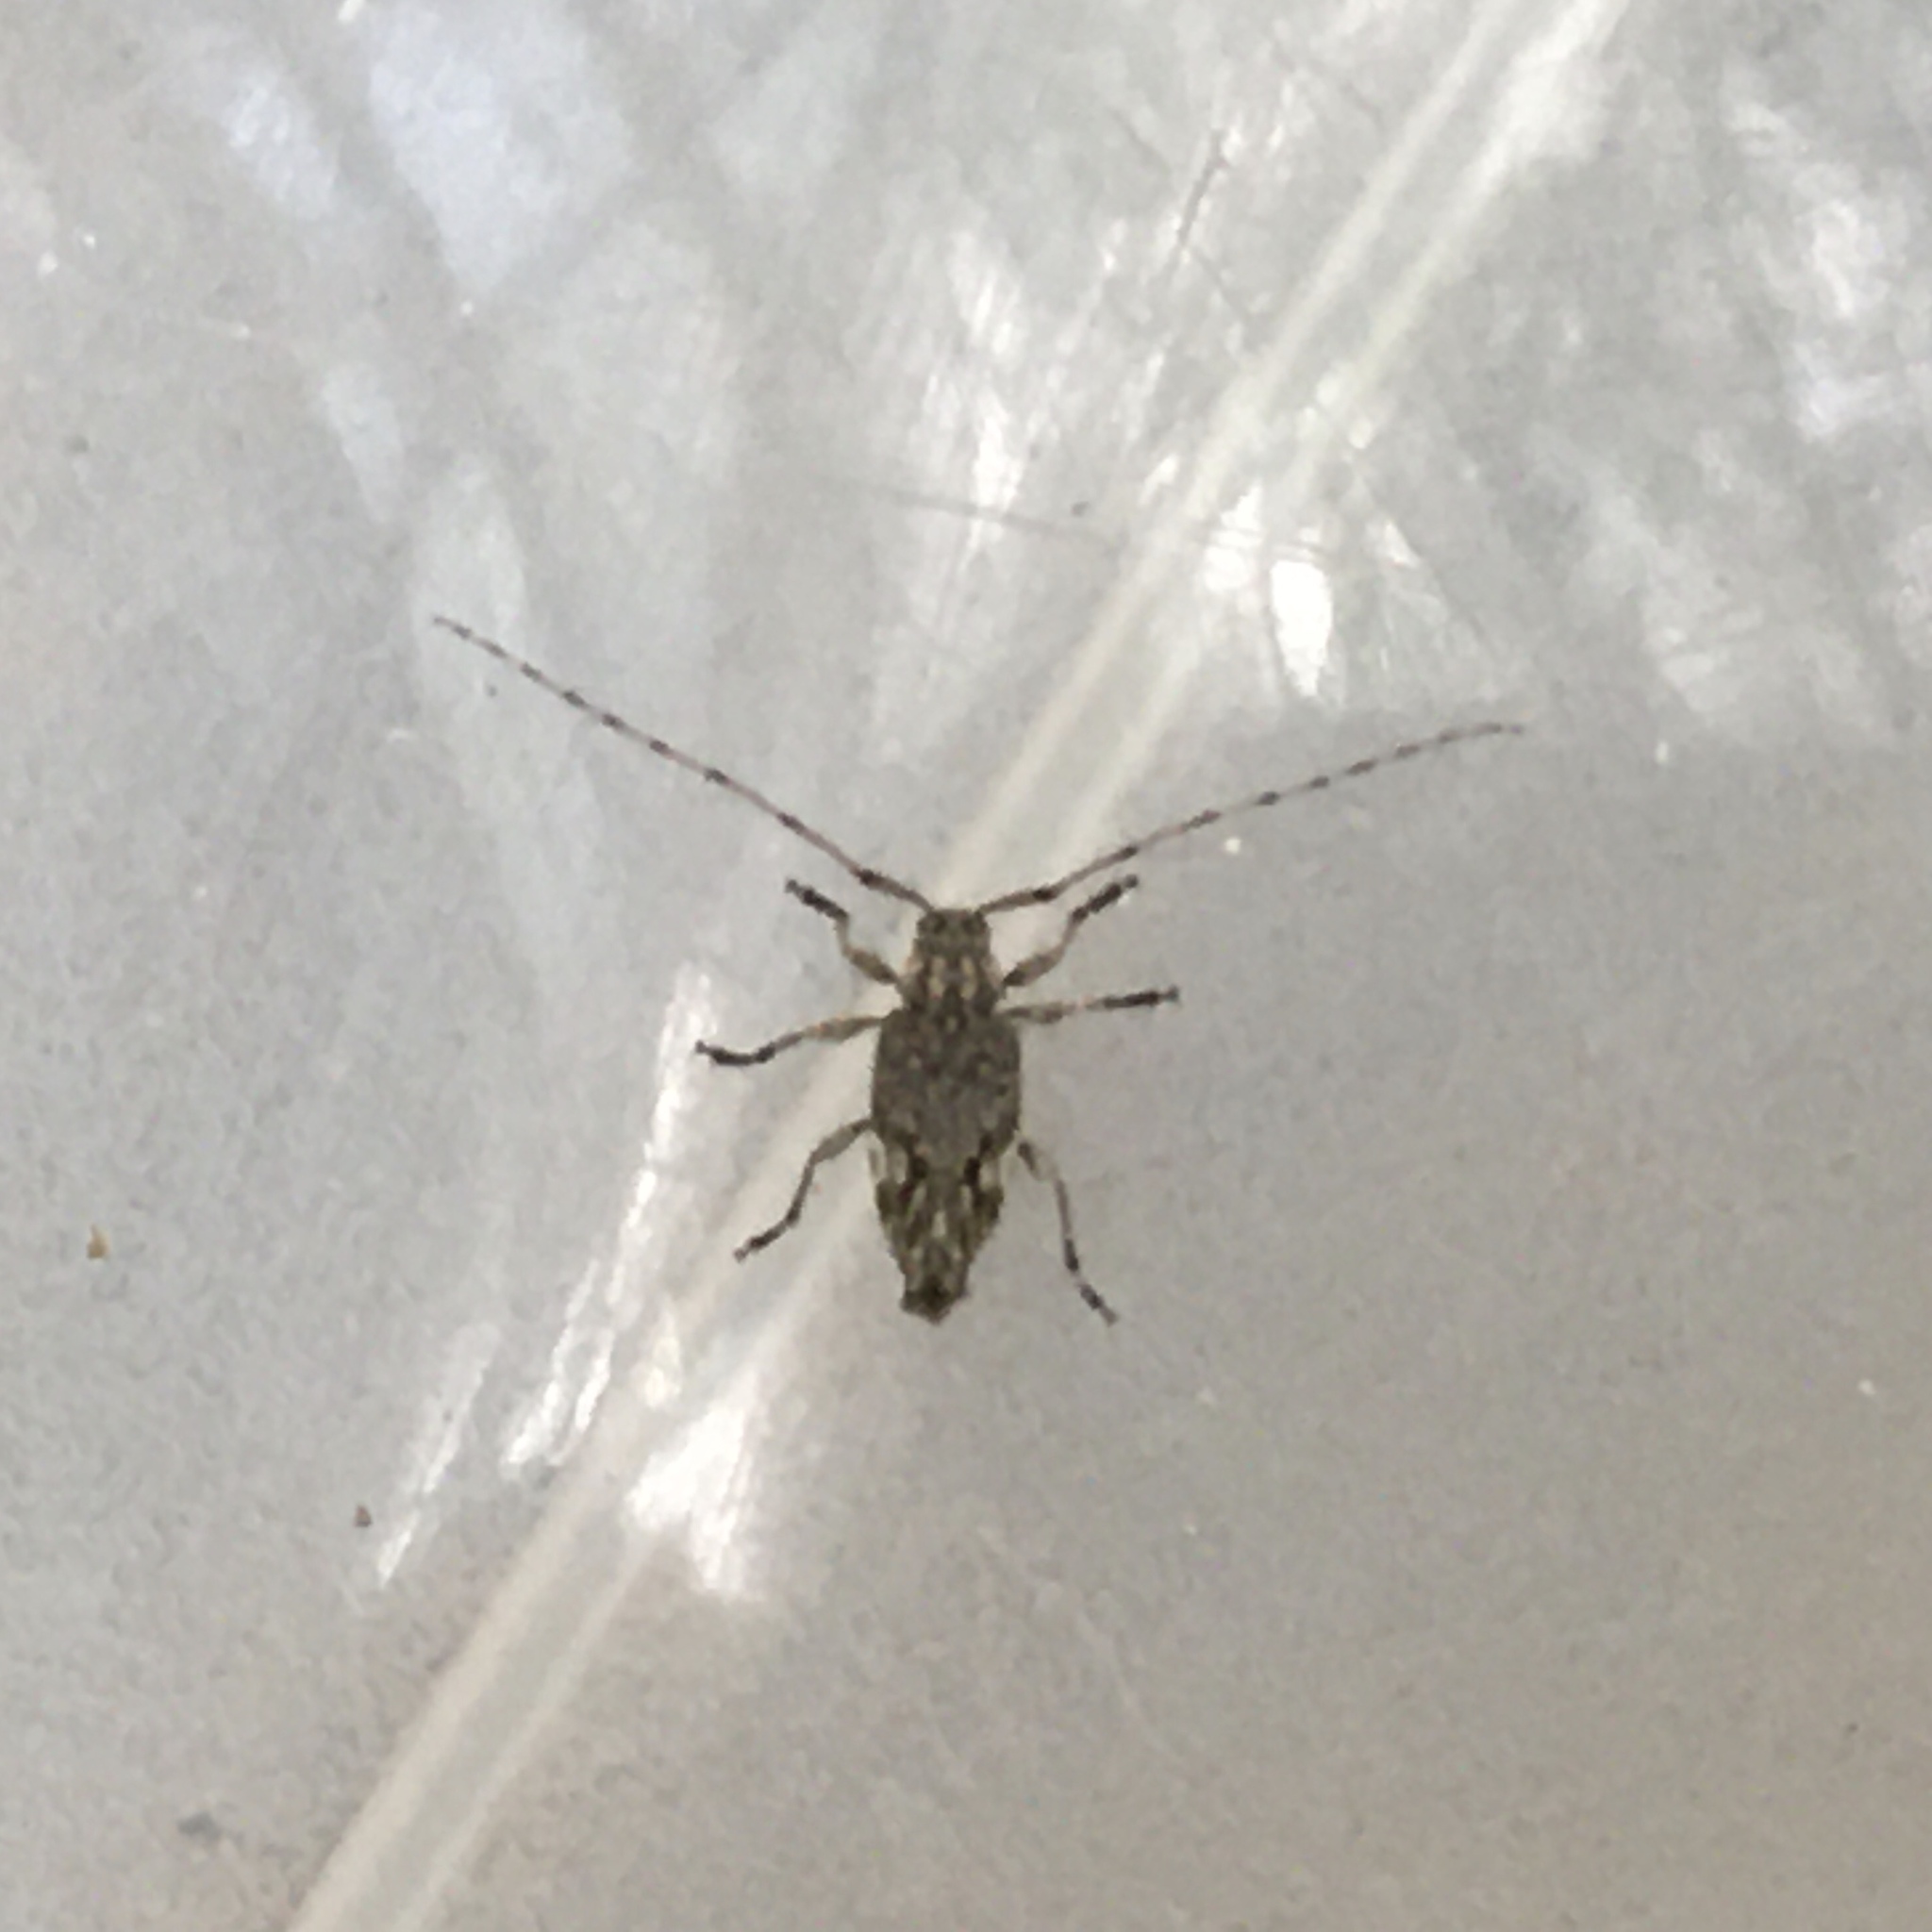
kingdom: Animalia
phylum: Arthropoda
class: Insecta
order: Coleoptera
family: Cerambycidae
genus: Nyssodrysina
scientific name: Nyssodrysina lignaria
